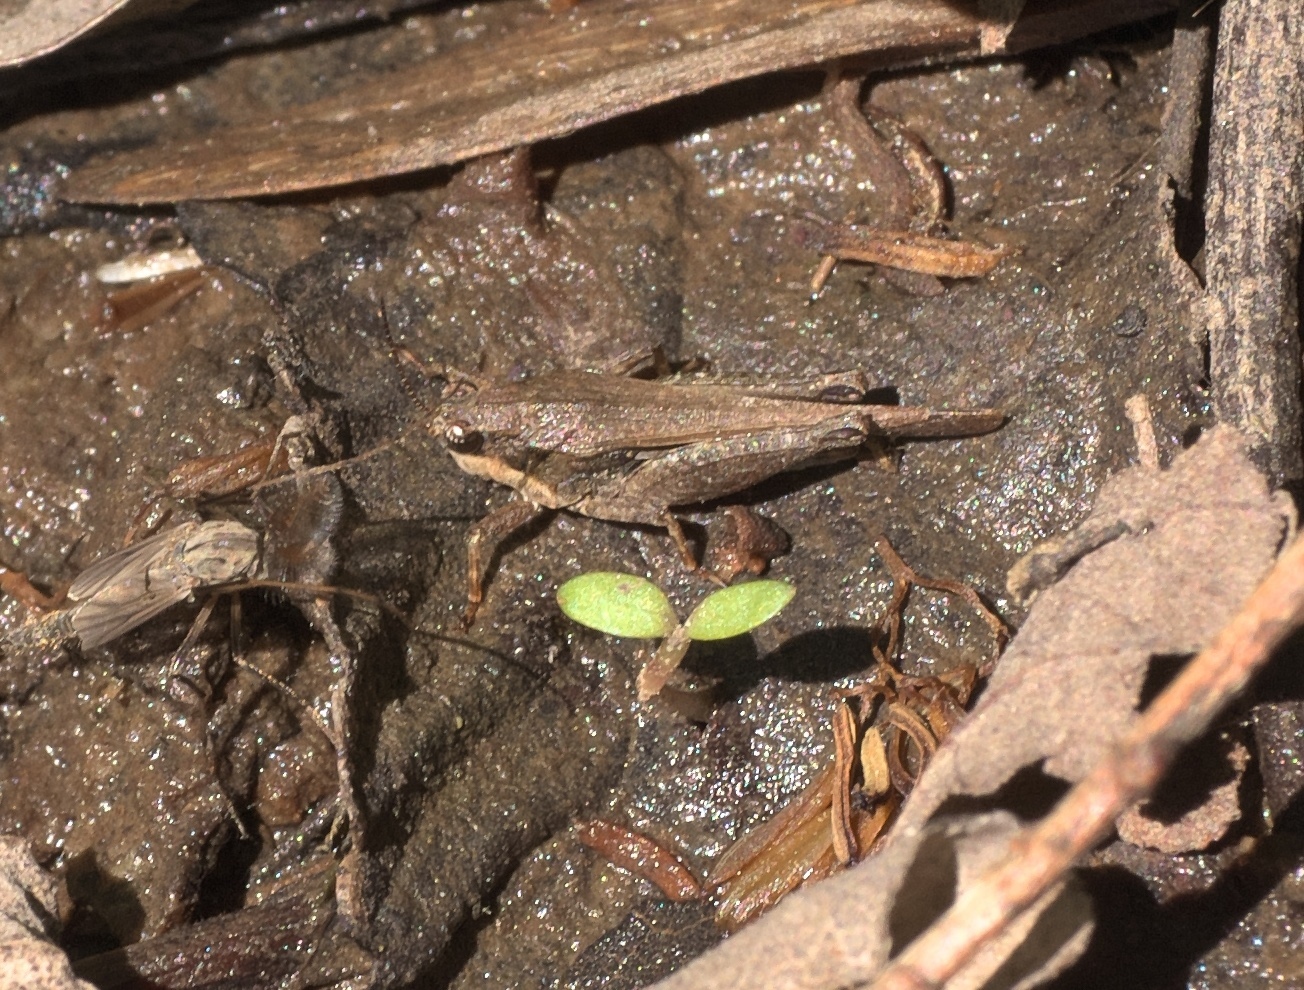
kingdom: Animalia
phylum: Arthropoda
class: Insecta
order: Orthoptera
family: Tetrigidae
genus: Tettigidea
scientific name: Tettigidea laterale
